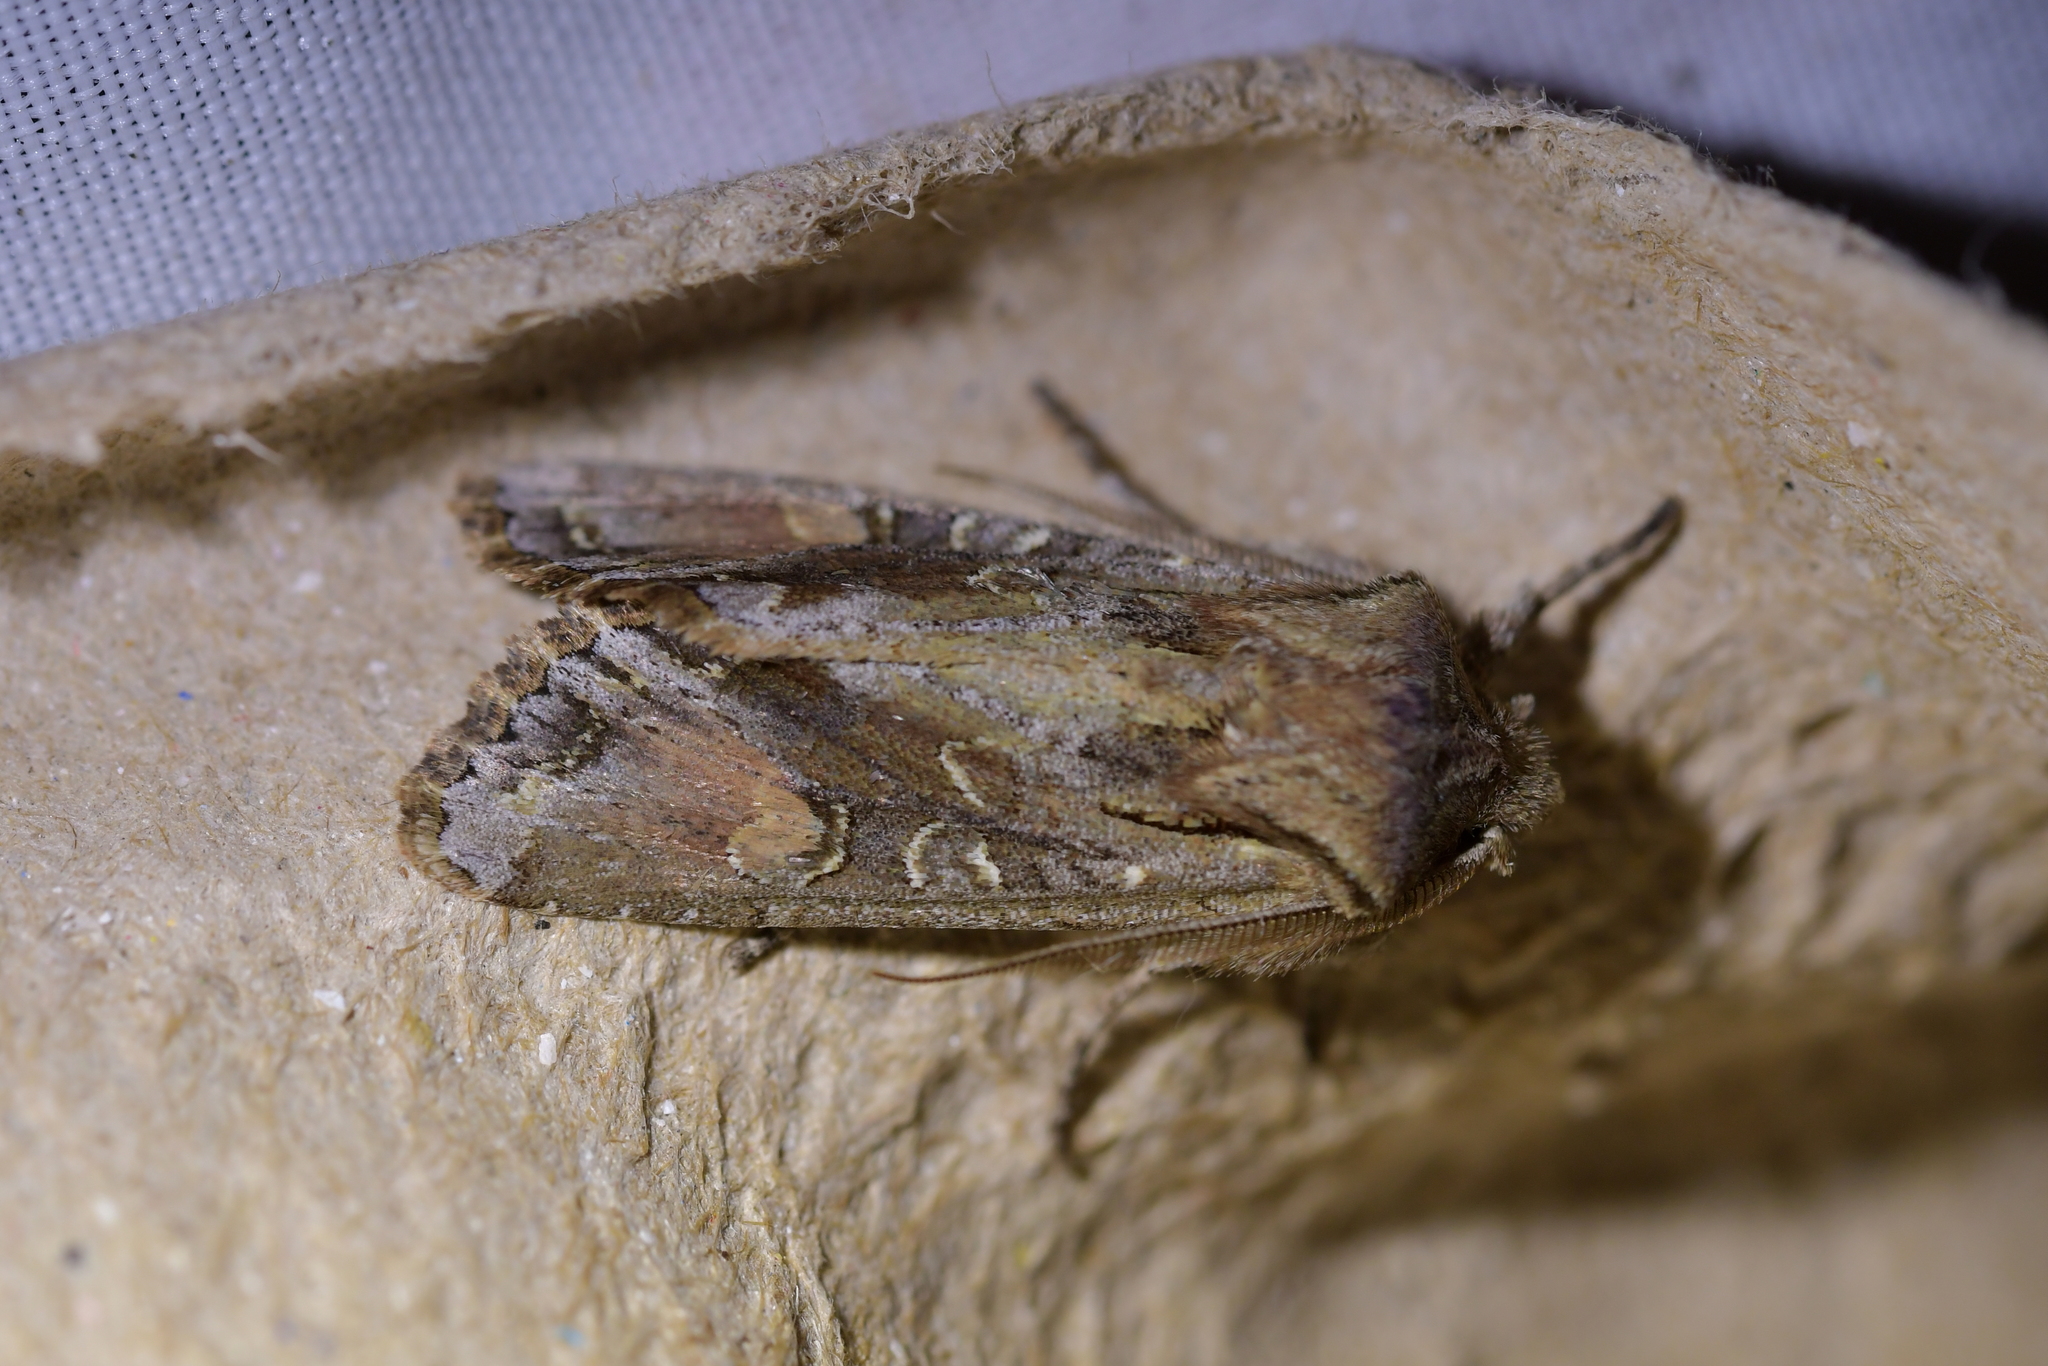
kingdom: Animalia
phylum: Arthropoda
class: Insecta
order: Lepidoptera
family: Noctuidae
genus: Ichneutica
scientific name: Ichneutica
